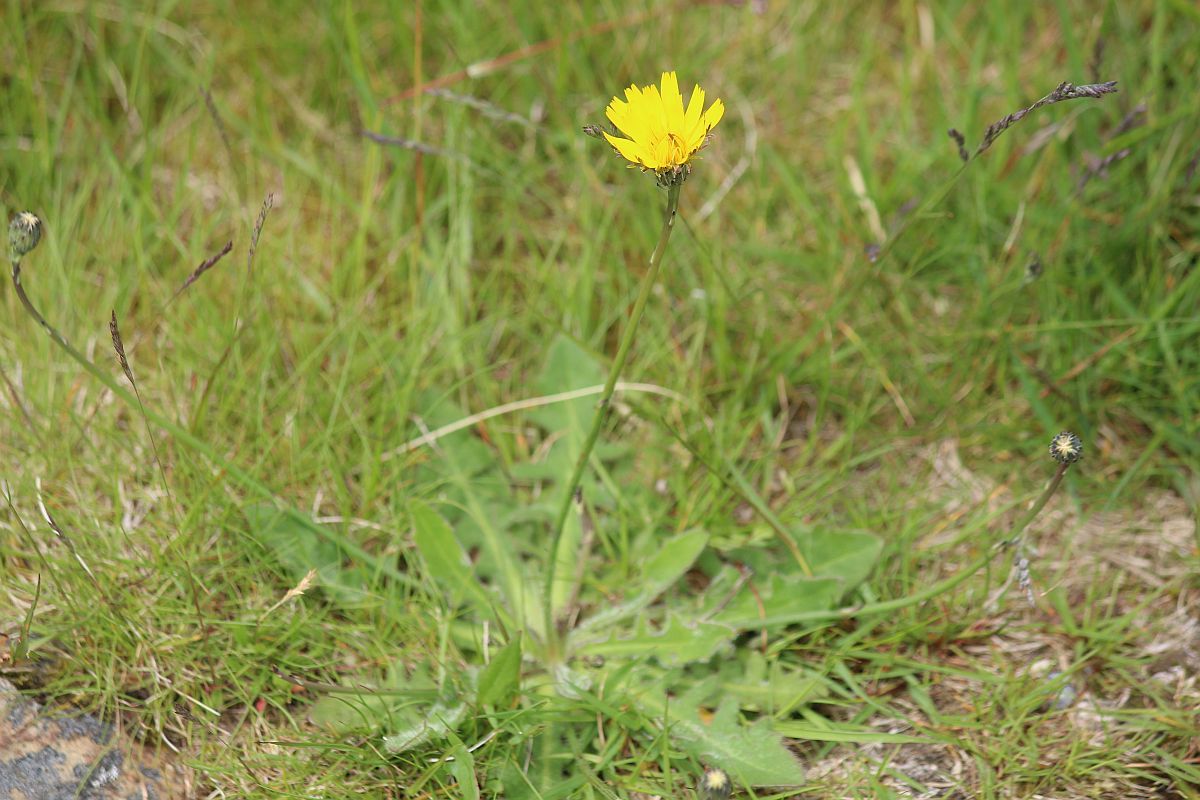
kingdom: Plantae
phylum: Tracheophyta
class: Magnoliopsida
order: Asterales
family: Asteraceae
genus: Hypochaeris
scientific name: Hypochaeris radicata
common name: Flatweed
